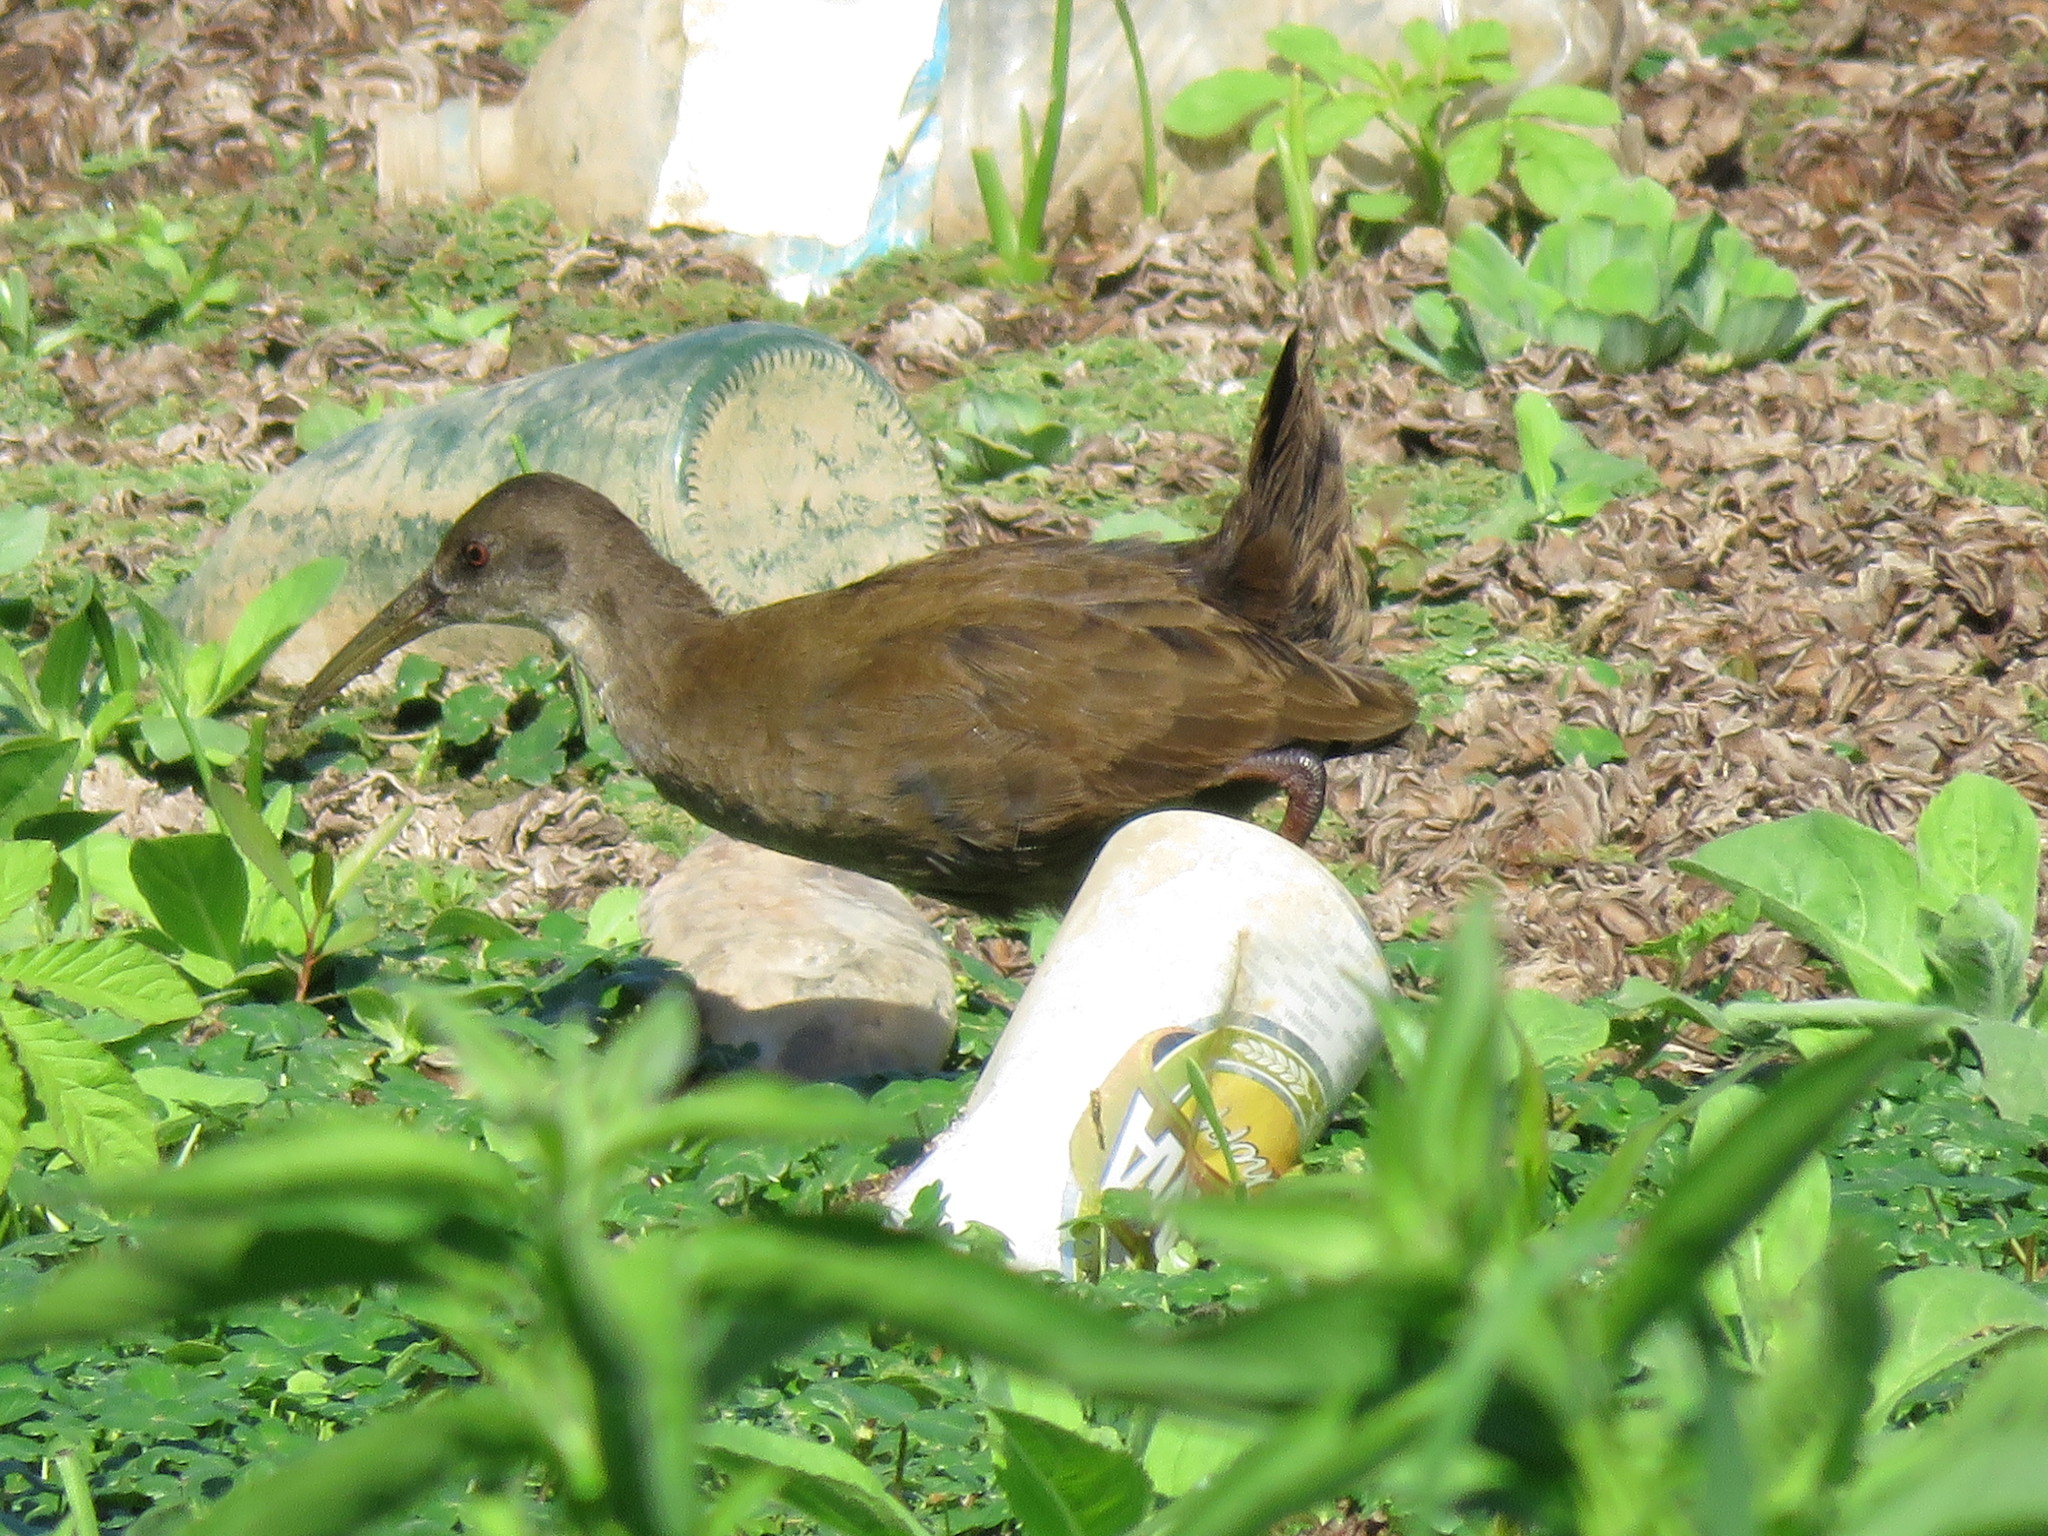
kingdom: Animalia
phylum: Chordata
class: Aves
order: Gruiformes
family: Rallidae
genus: Pardirallus
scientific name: Pardirallus sanguinolentus
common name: Plumbeous rail
